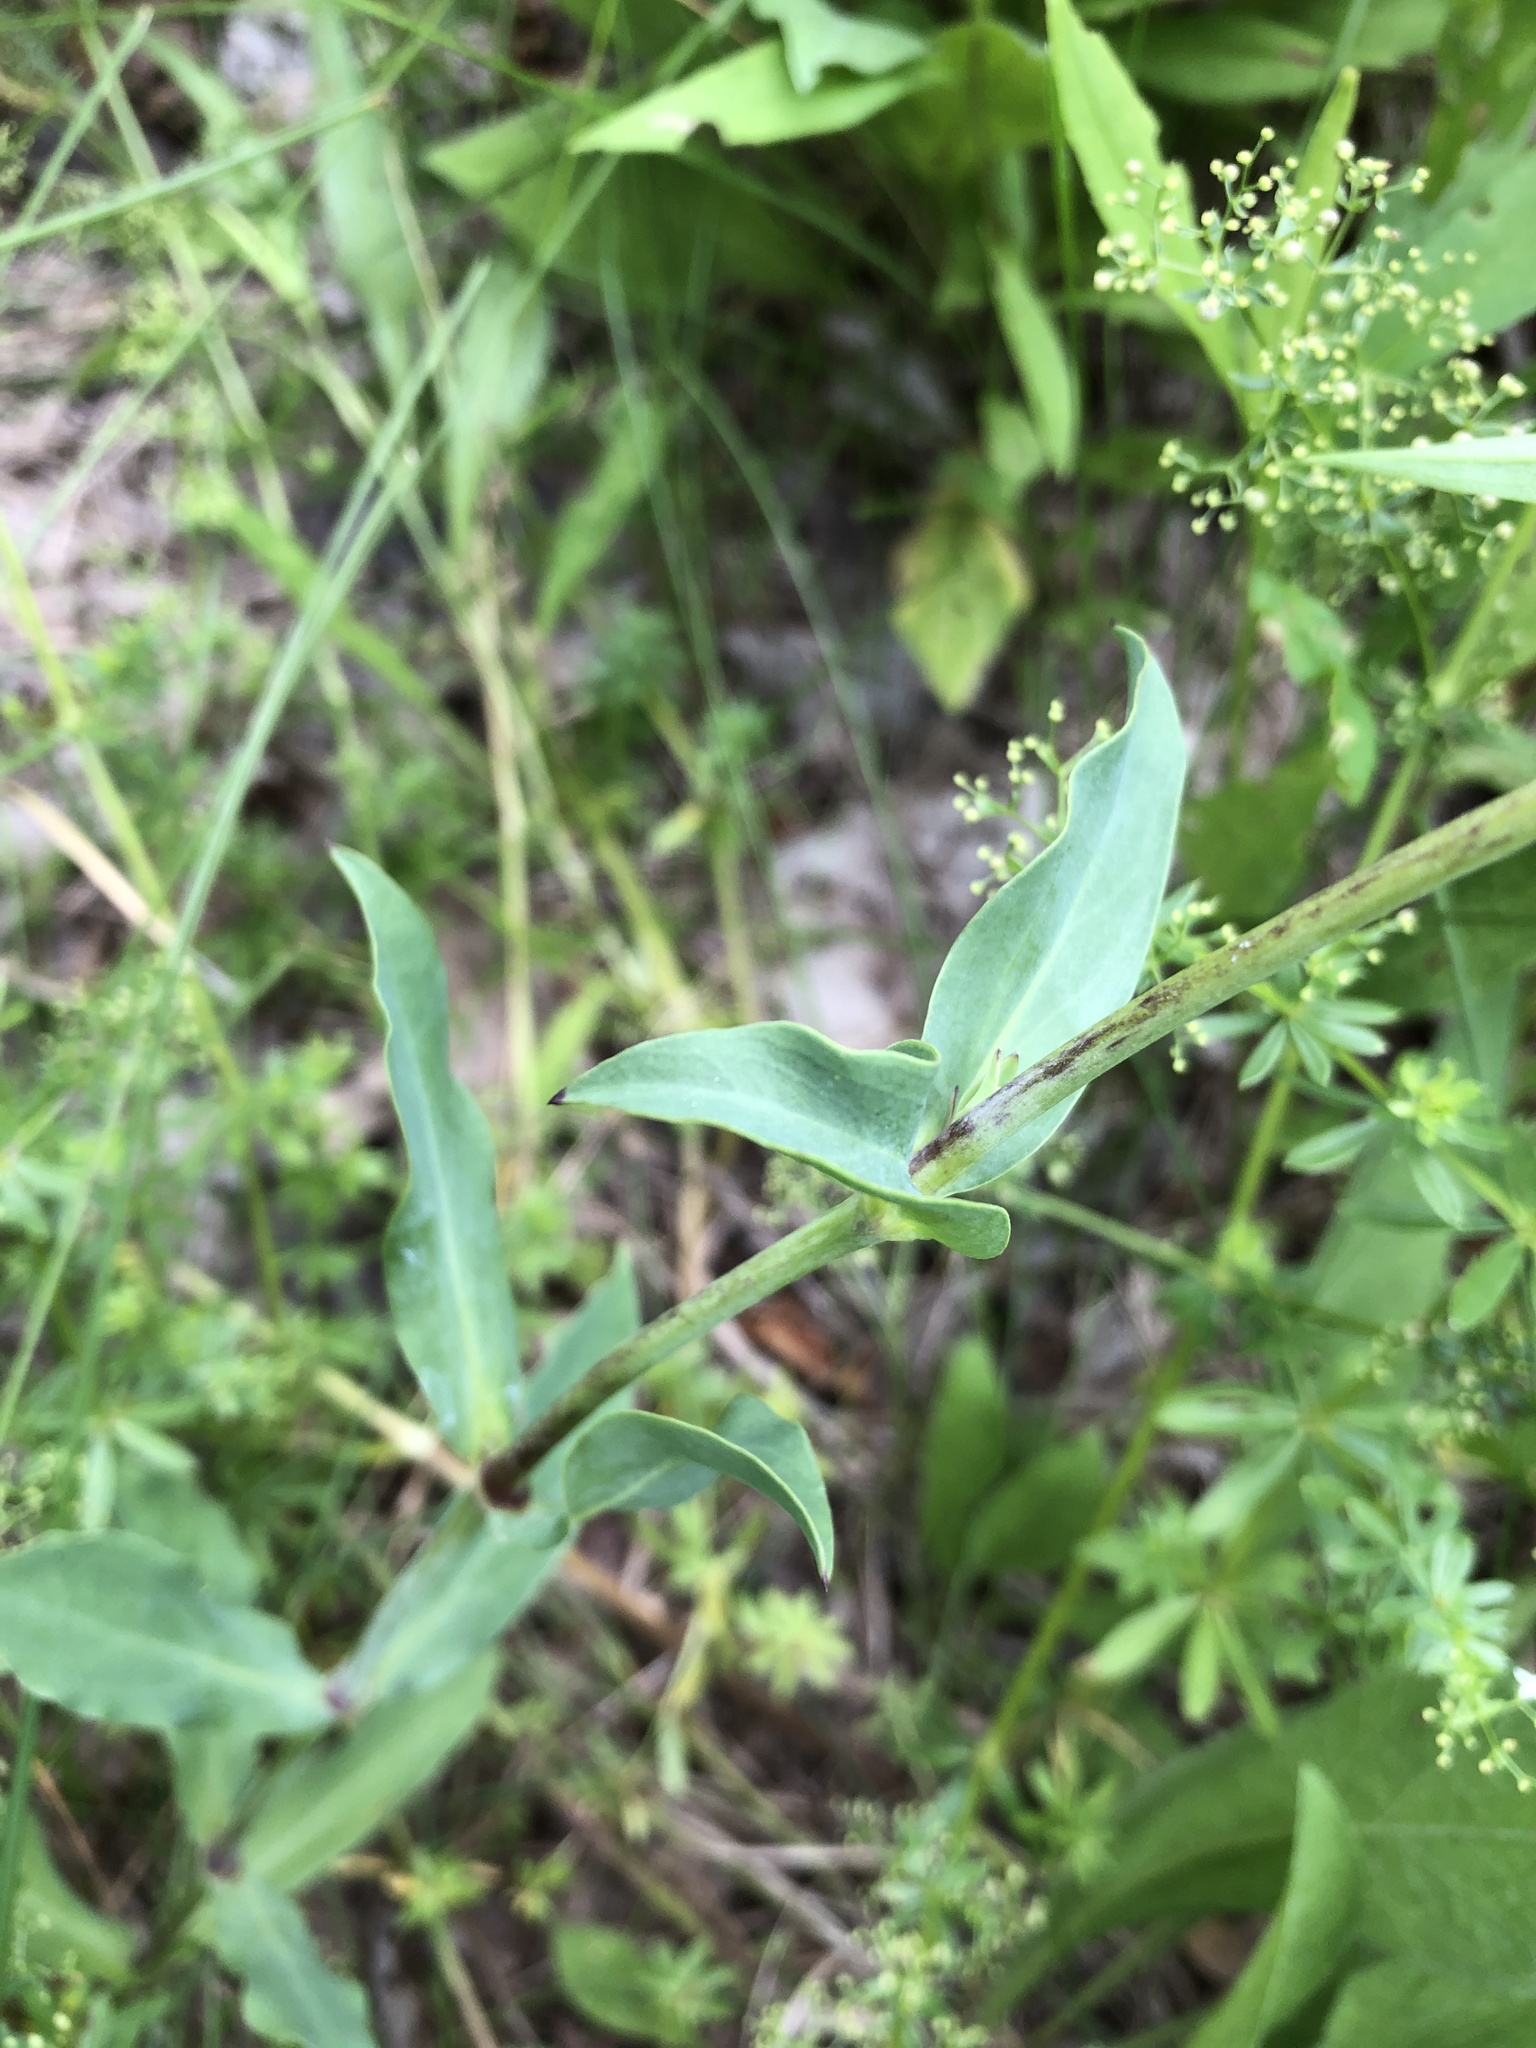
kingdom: Plantae
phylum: Tracheophyta
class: Magnoliopsida
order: Caryophyllales
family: Caryophyllaceae
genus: Silene
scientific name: Silene vulgaris
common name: Bladder campion
